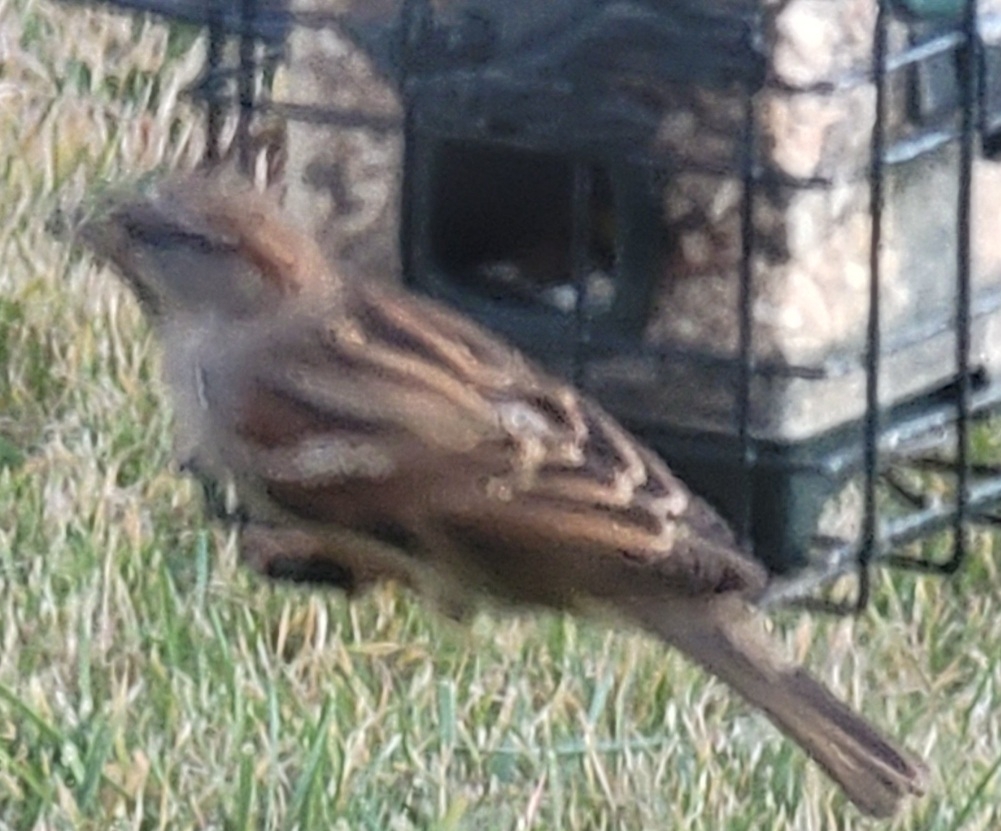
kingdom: Animalia
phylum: Chordata
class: Aves
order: Passeriformes
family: Passeridae
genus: Passer
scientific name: Passer domesticus
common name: House sparrow
